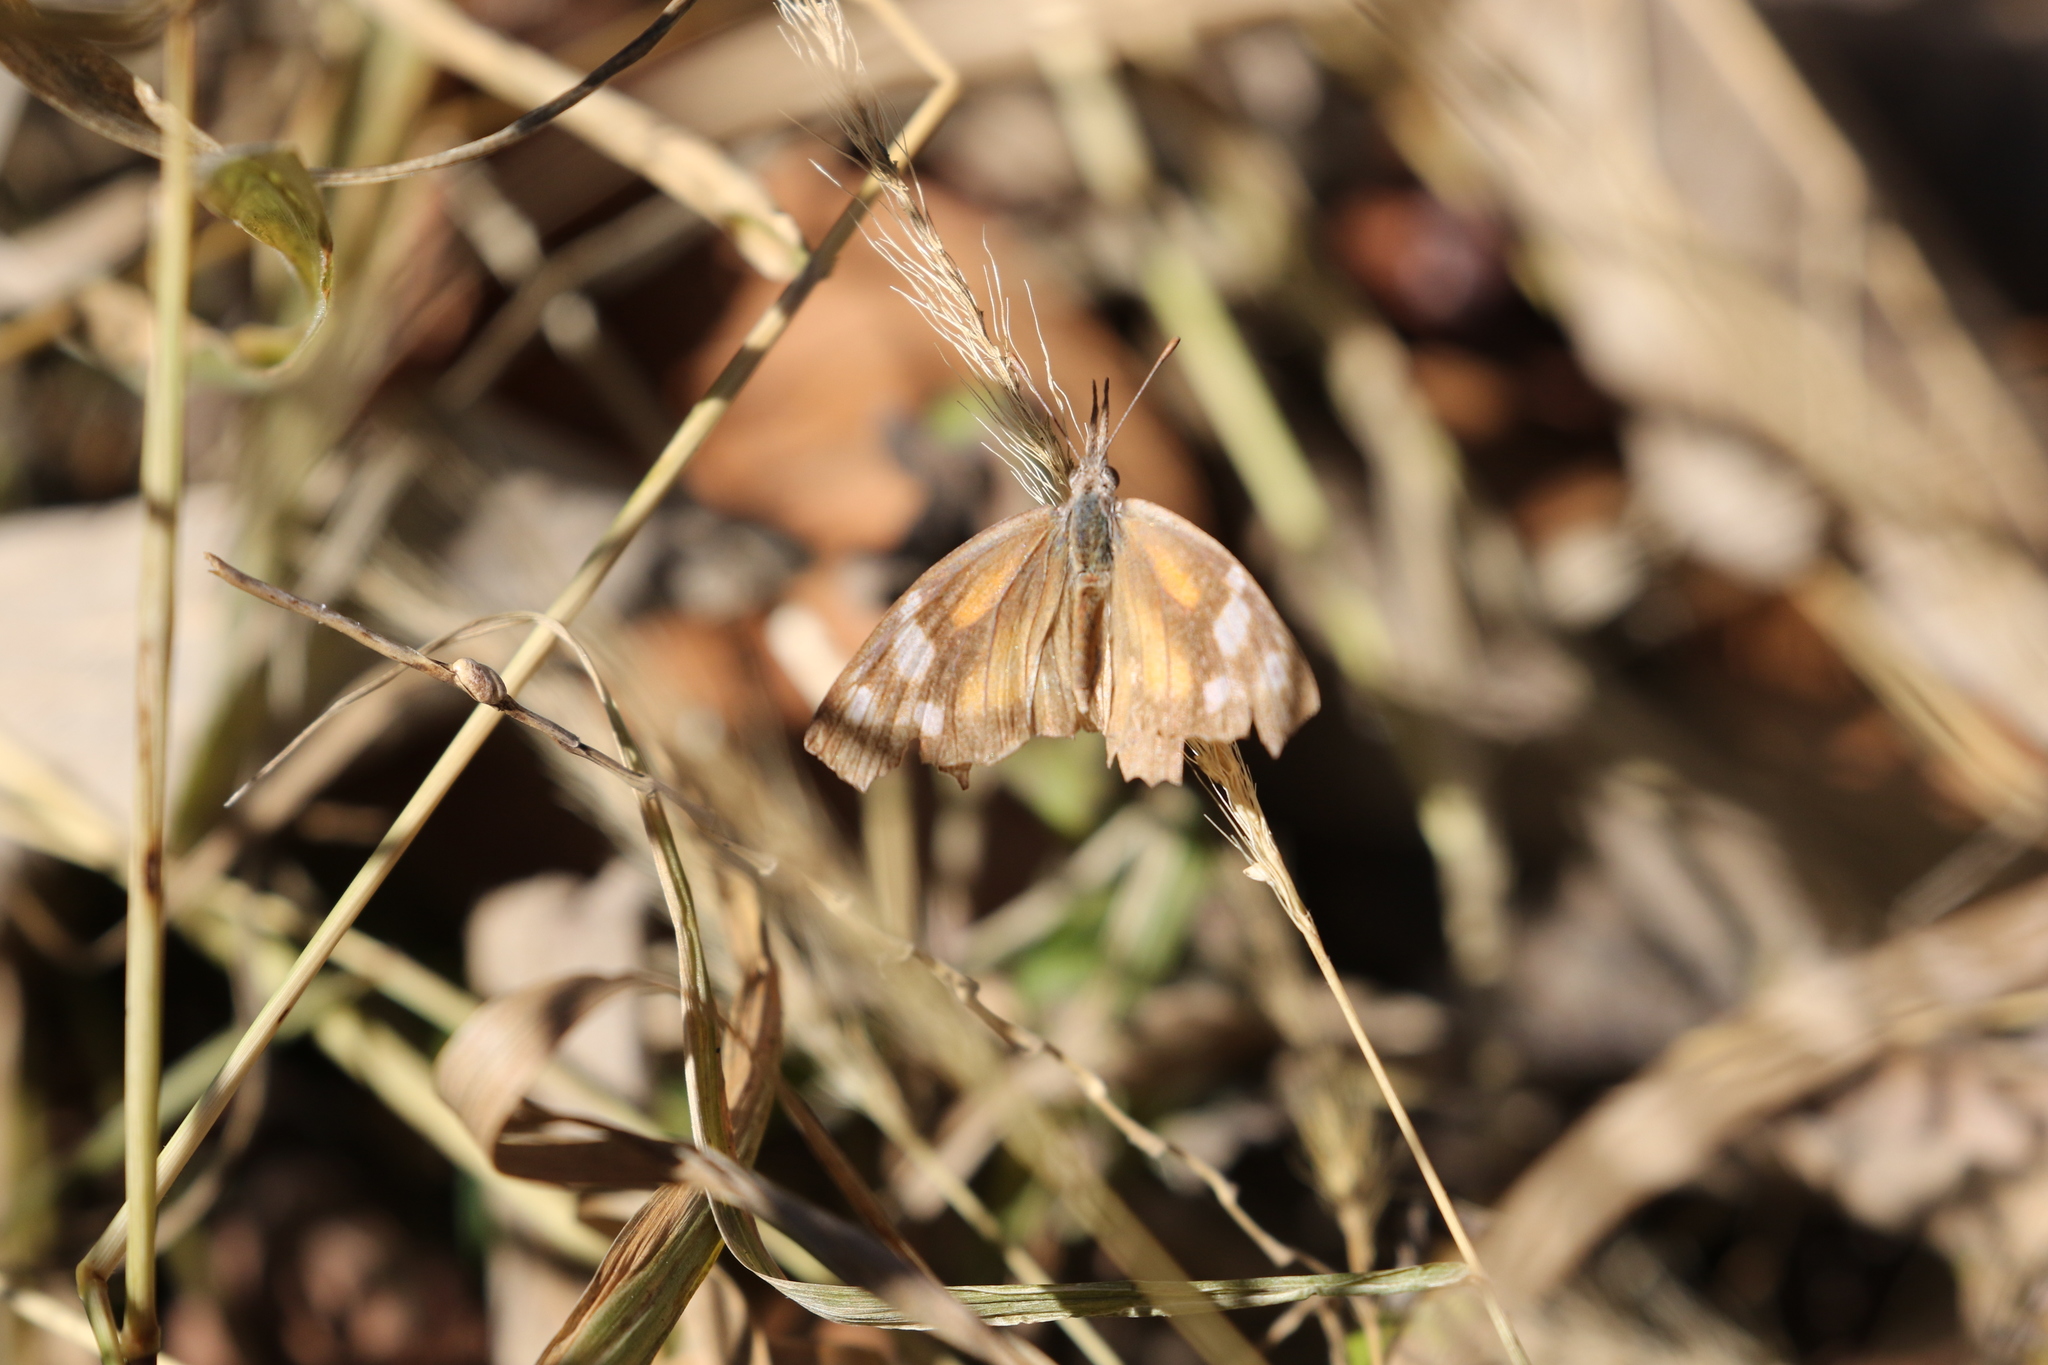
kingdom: Animalia
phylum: Arthropoda
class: Insecta
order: Lepidoptera
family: Nymphalidae
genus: Libytheana
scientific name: Libytheana carinenta
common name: American snout
